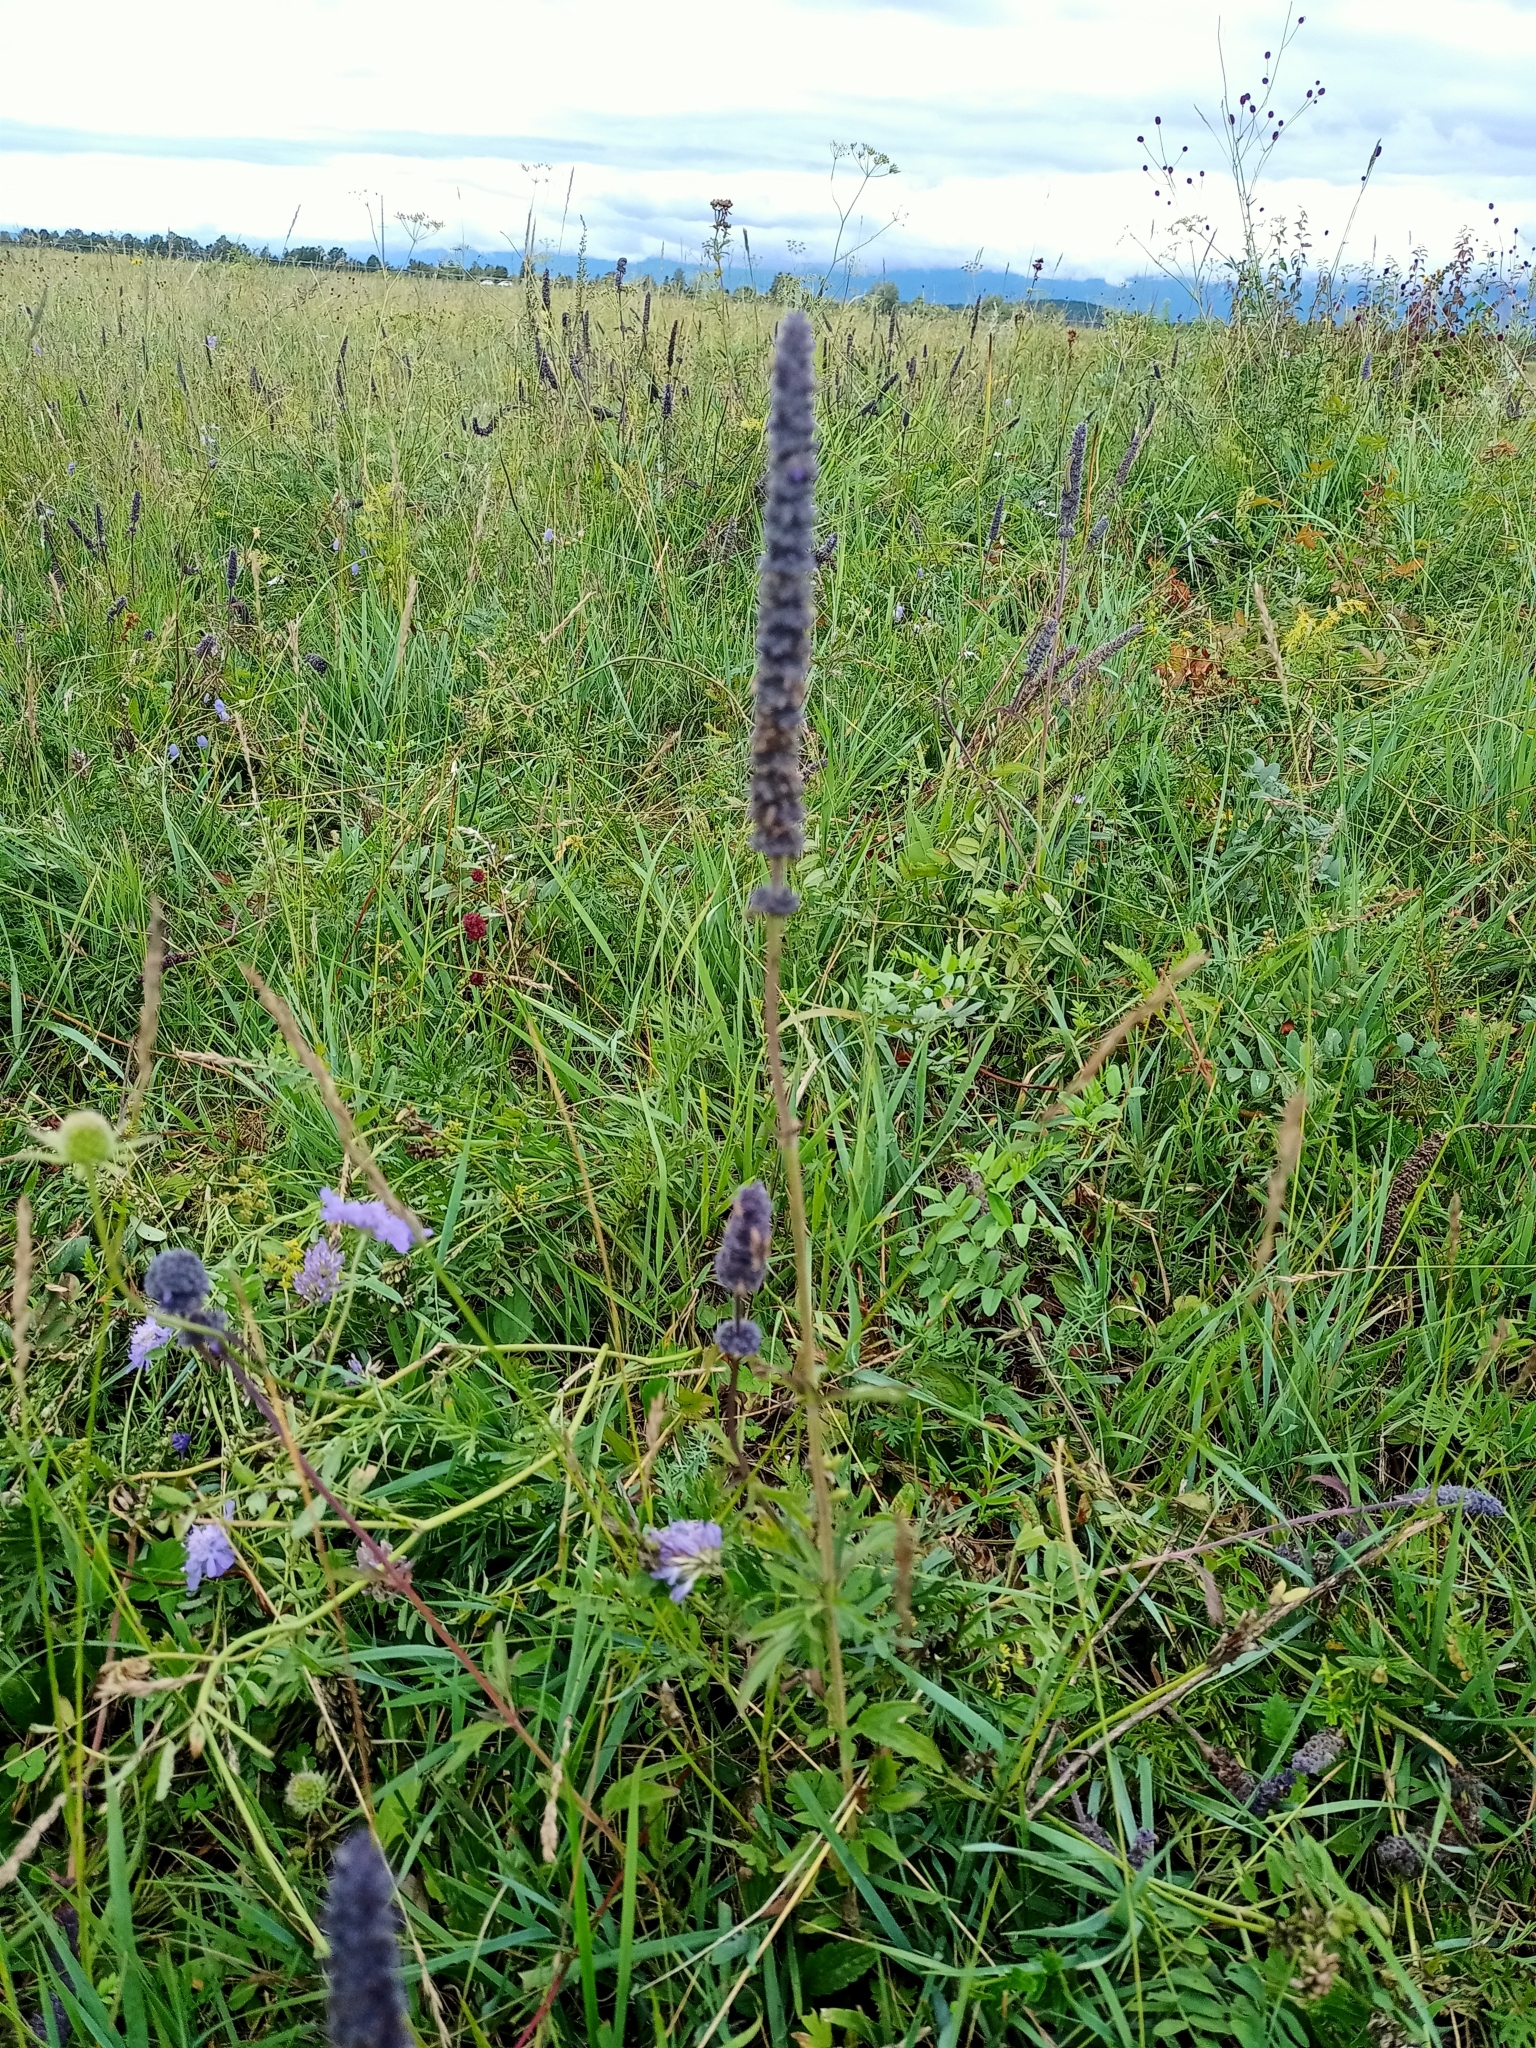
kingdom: Plantae
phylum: Tracheophyta
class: Magnoliopsida
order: Lamiales
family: Lamiaceae
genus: Nepeta
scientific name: Nepeta multifida
